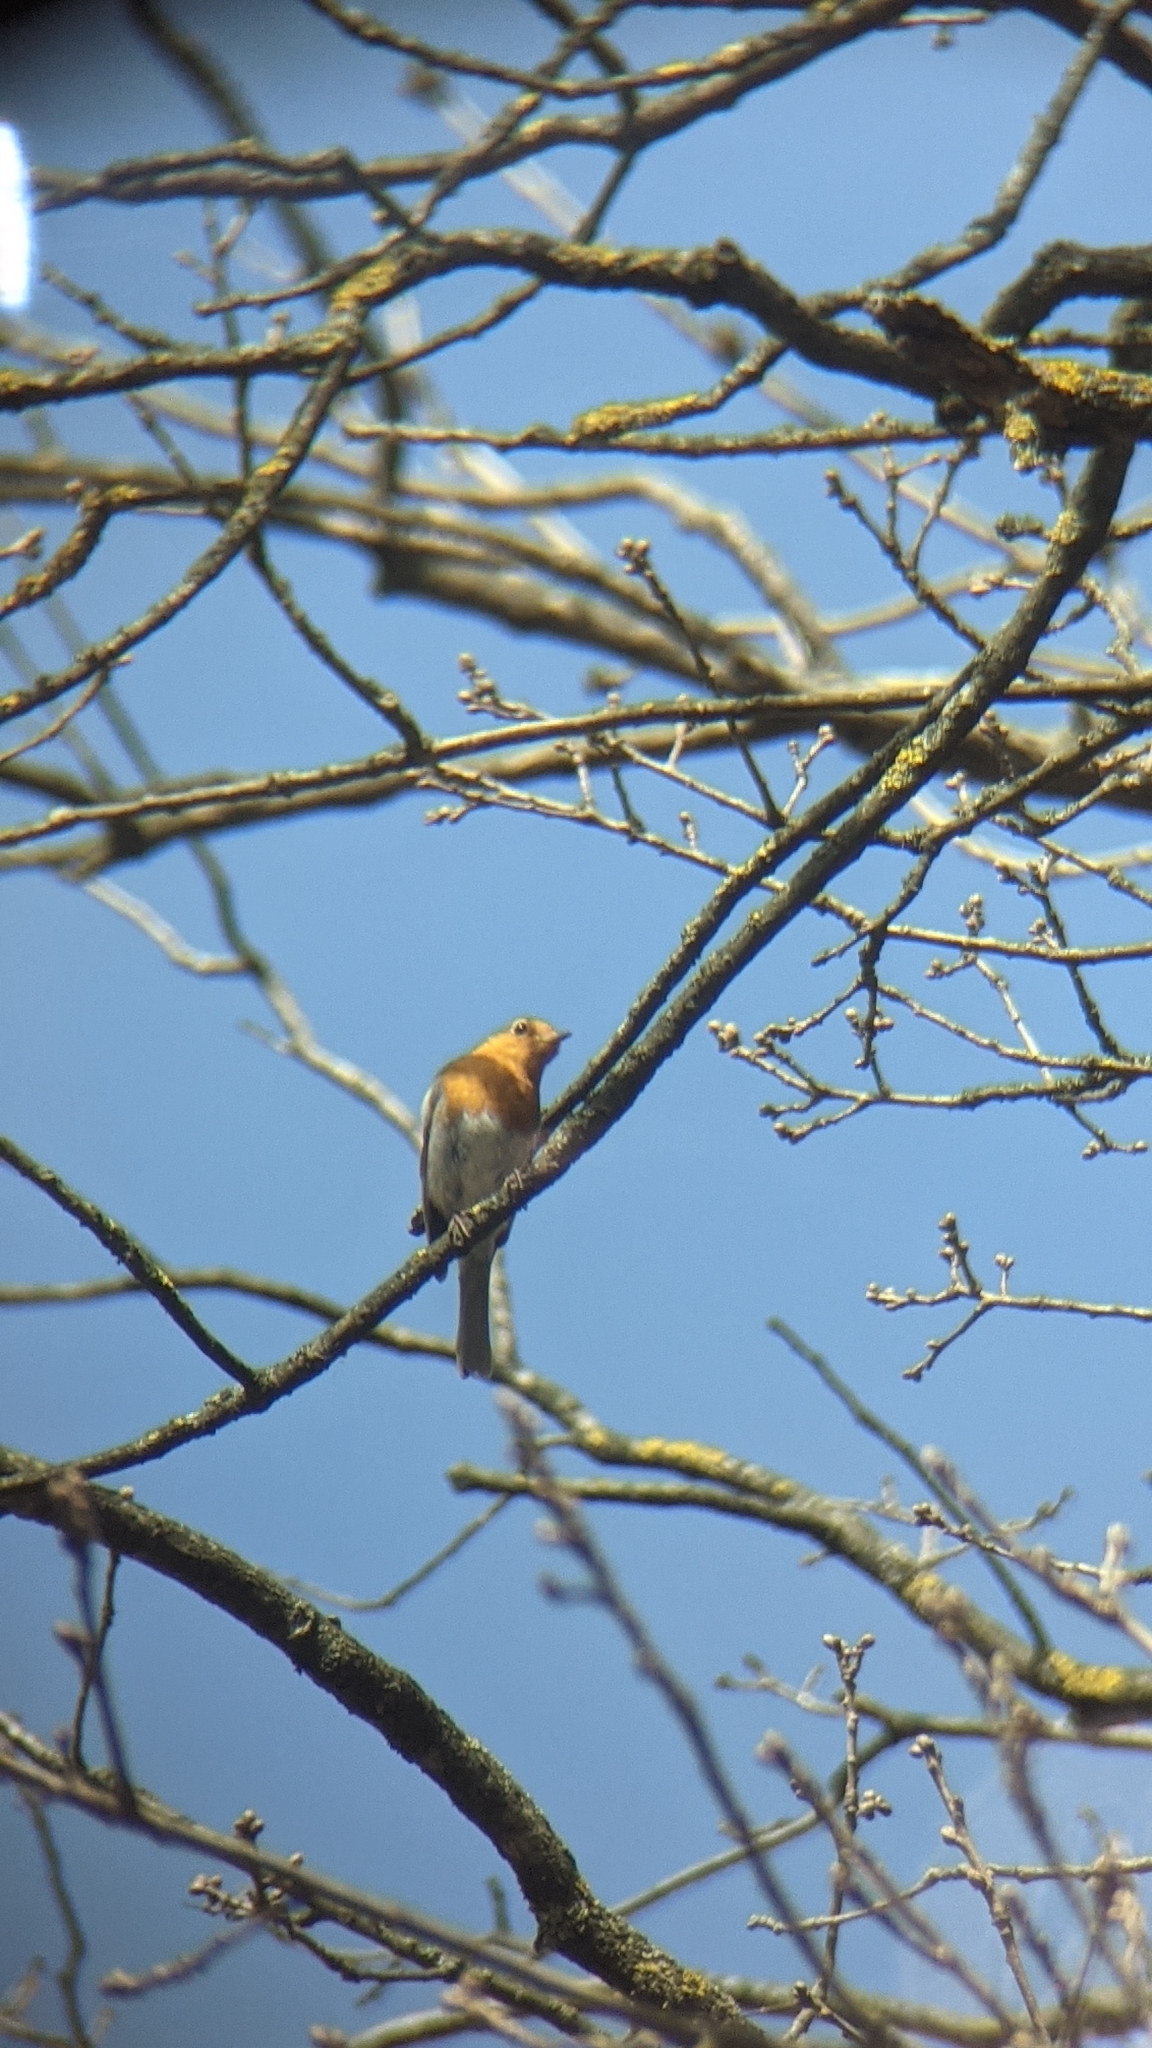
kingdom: Animalia
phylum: Chordata
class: Aves
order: Passeriformes
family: Muscicapidae
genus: Erithacus
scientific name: Erithacus rubecula
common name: European robin
